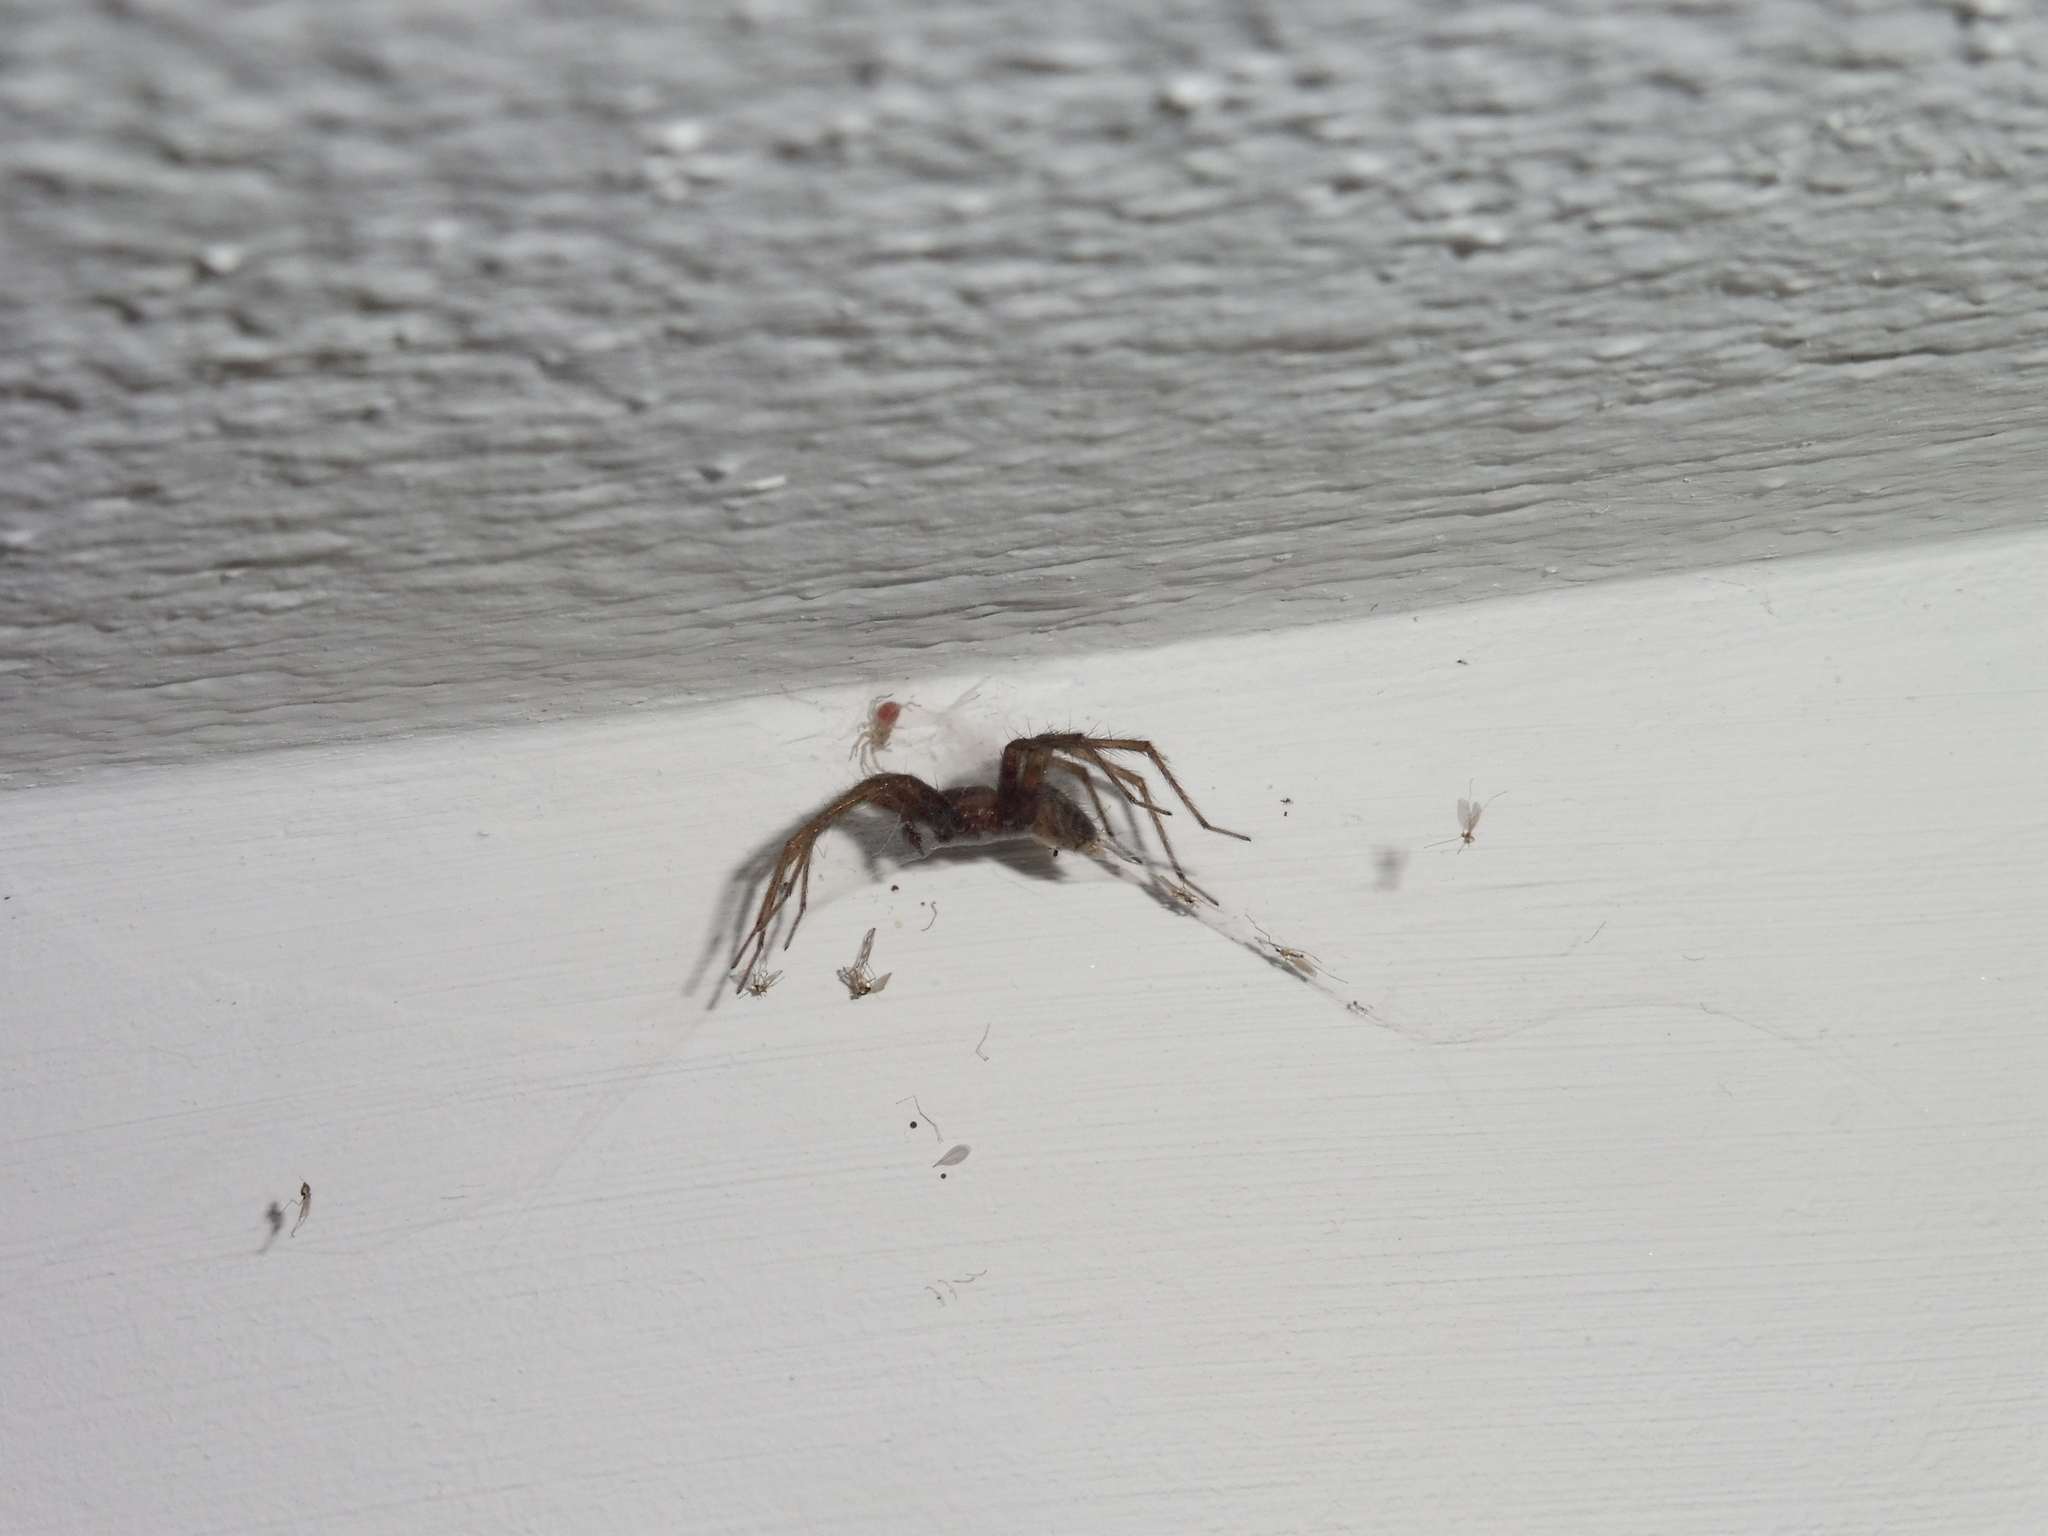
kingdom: Animalia
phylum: Arthropoda
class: Arachnida
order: Araneae
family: Agelenidae
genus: Tegenaria
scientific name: Tegenaria domestica
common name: Barn funnel weaver
